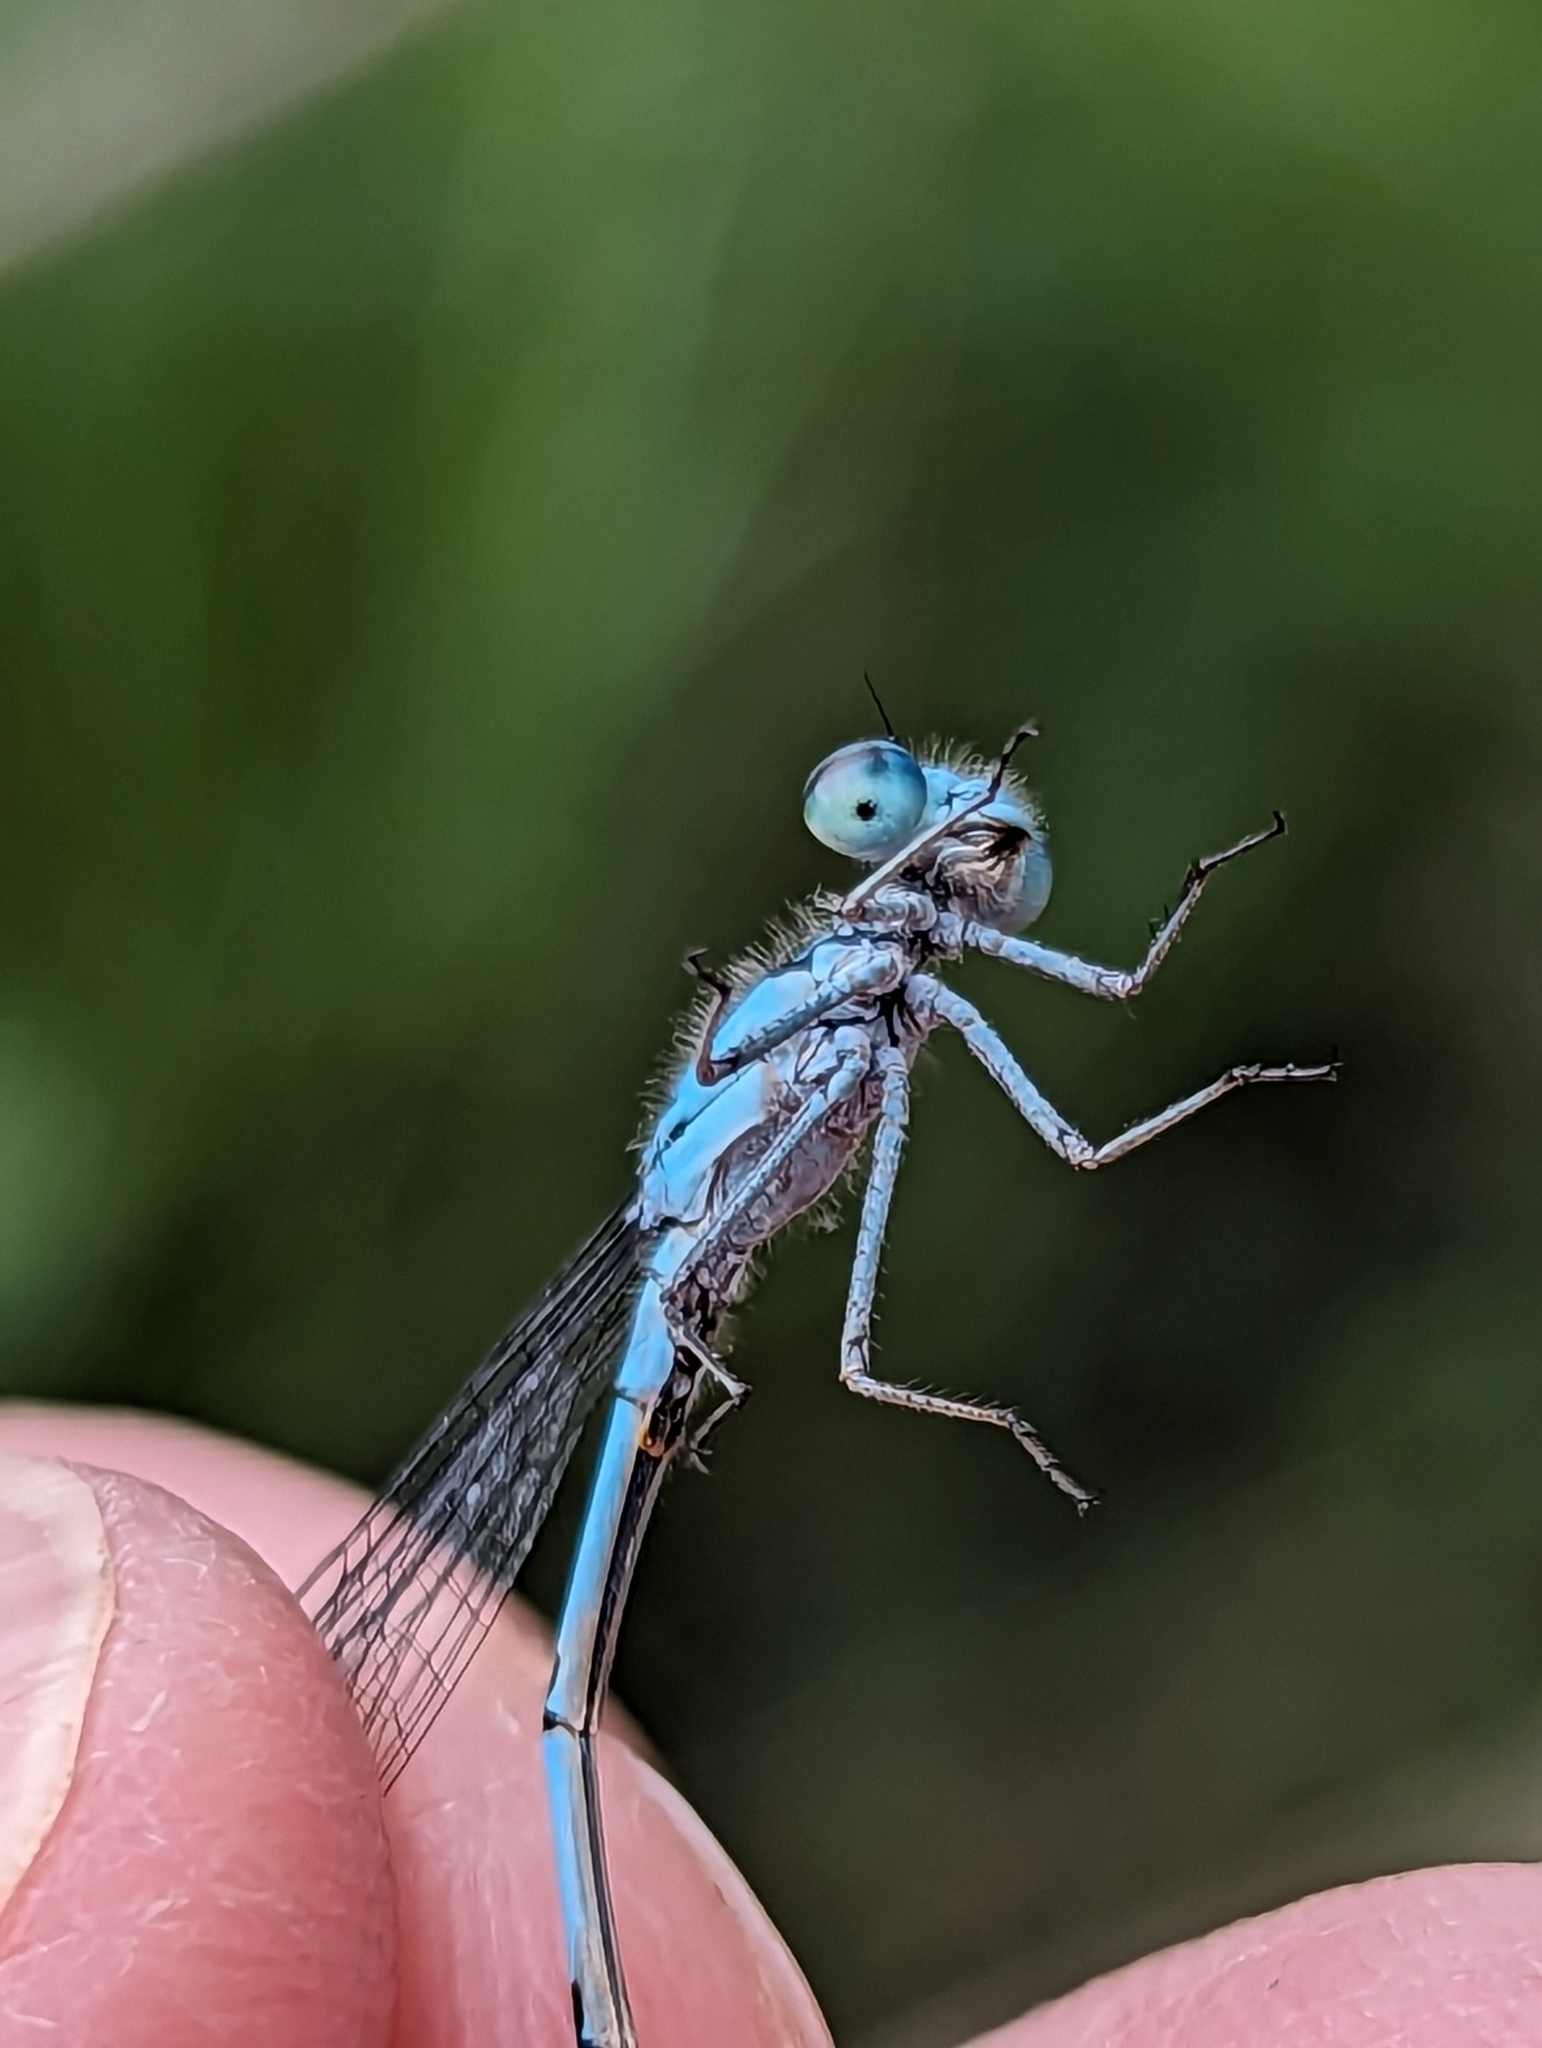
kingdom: Animalia
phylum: Arthropoda
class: Insecta
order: Odonata
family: Coenagrionidae
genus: Enallagma
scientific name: Enallagma hageni
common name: Hagen's bluet
